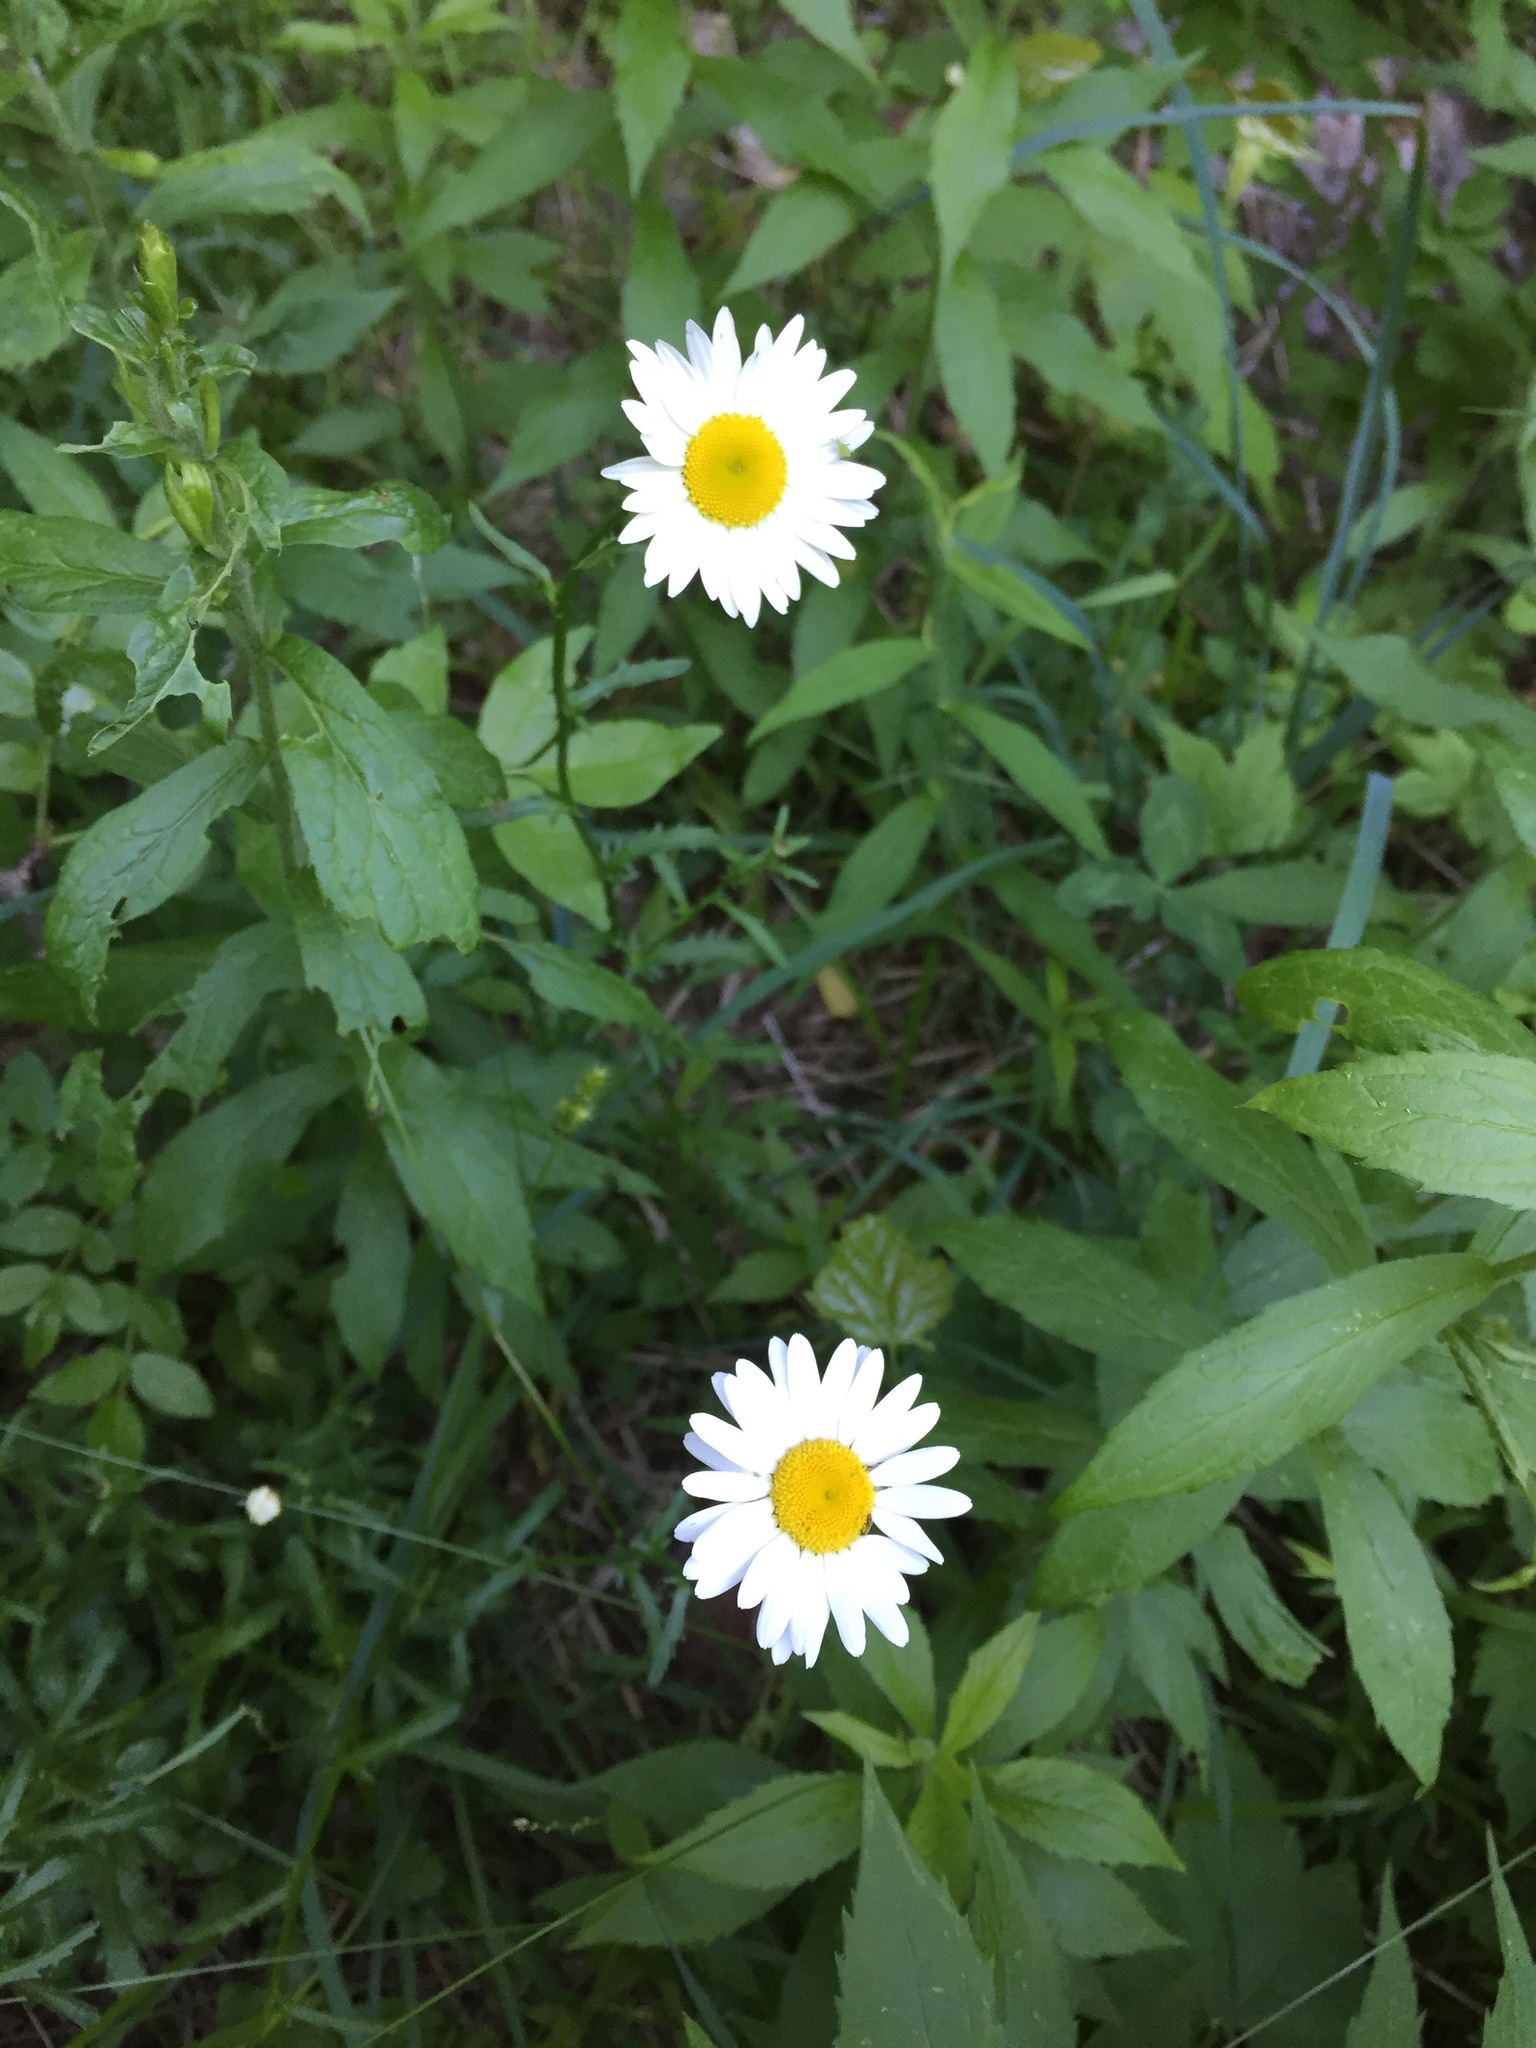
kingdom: Plantae
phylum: Tracheophyta
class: Magnoliopsida
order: Asterales
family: Asteraceae
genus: Leucanthemum
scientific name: Leucanthemum vulgare
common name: Oxeye daisy
